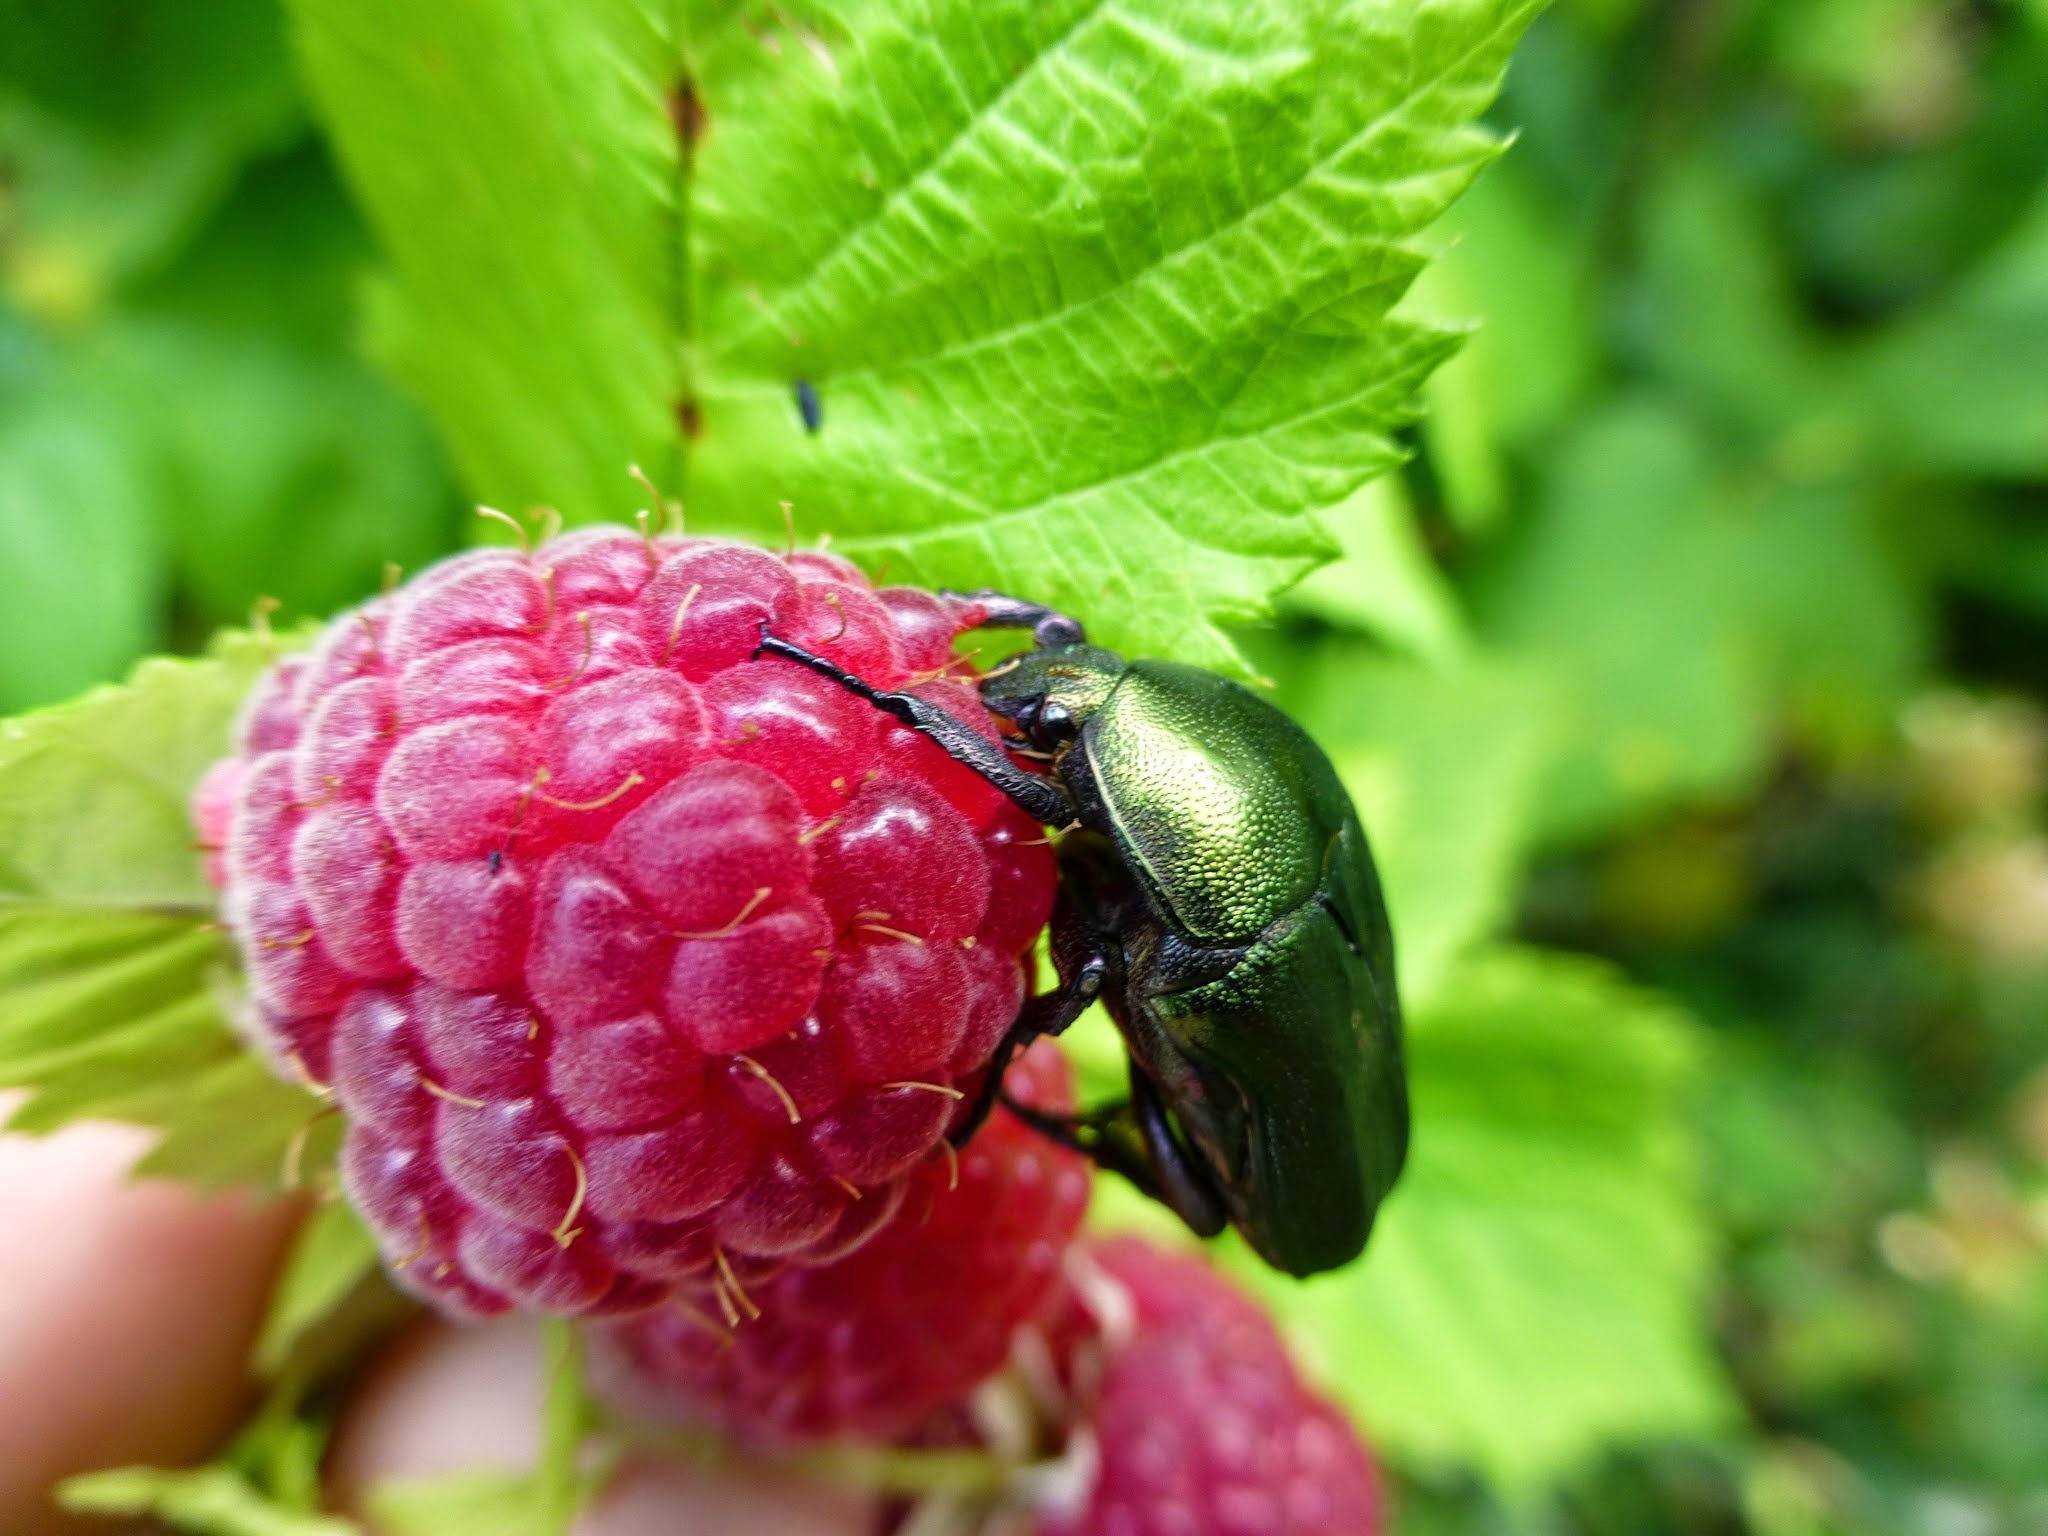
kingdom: Animalia
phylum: Arthropoda
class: Insecta
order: Coleoptera
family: Scarabaeidae
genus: Protaetia
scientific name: Protaetia cuprea
